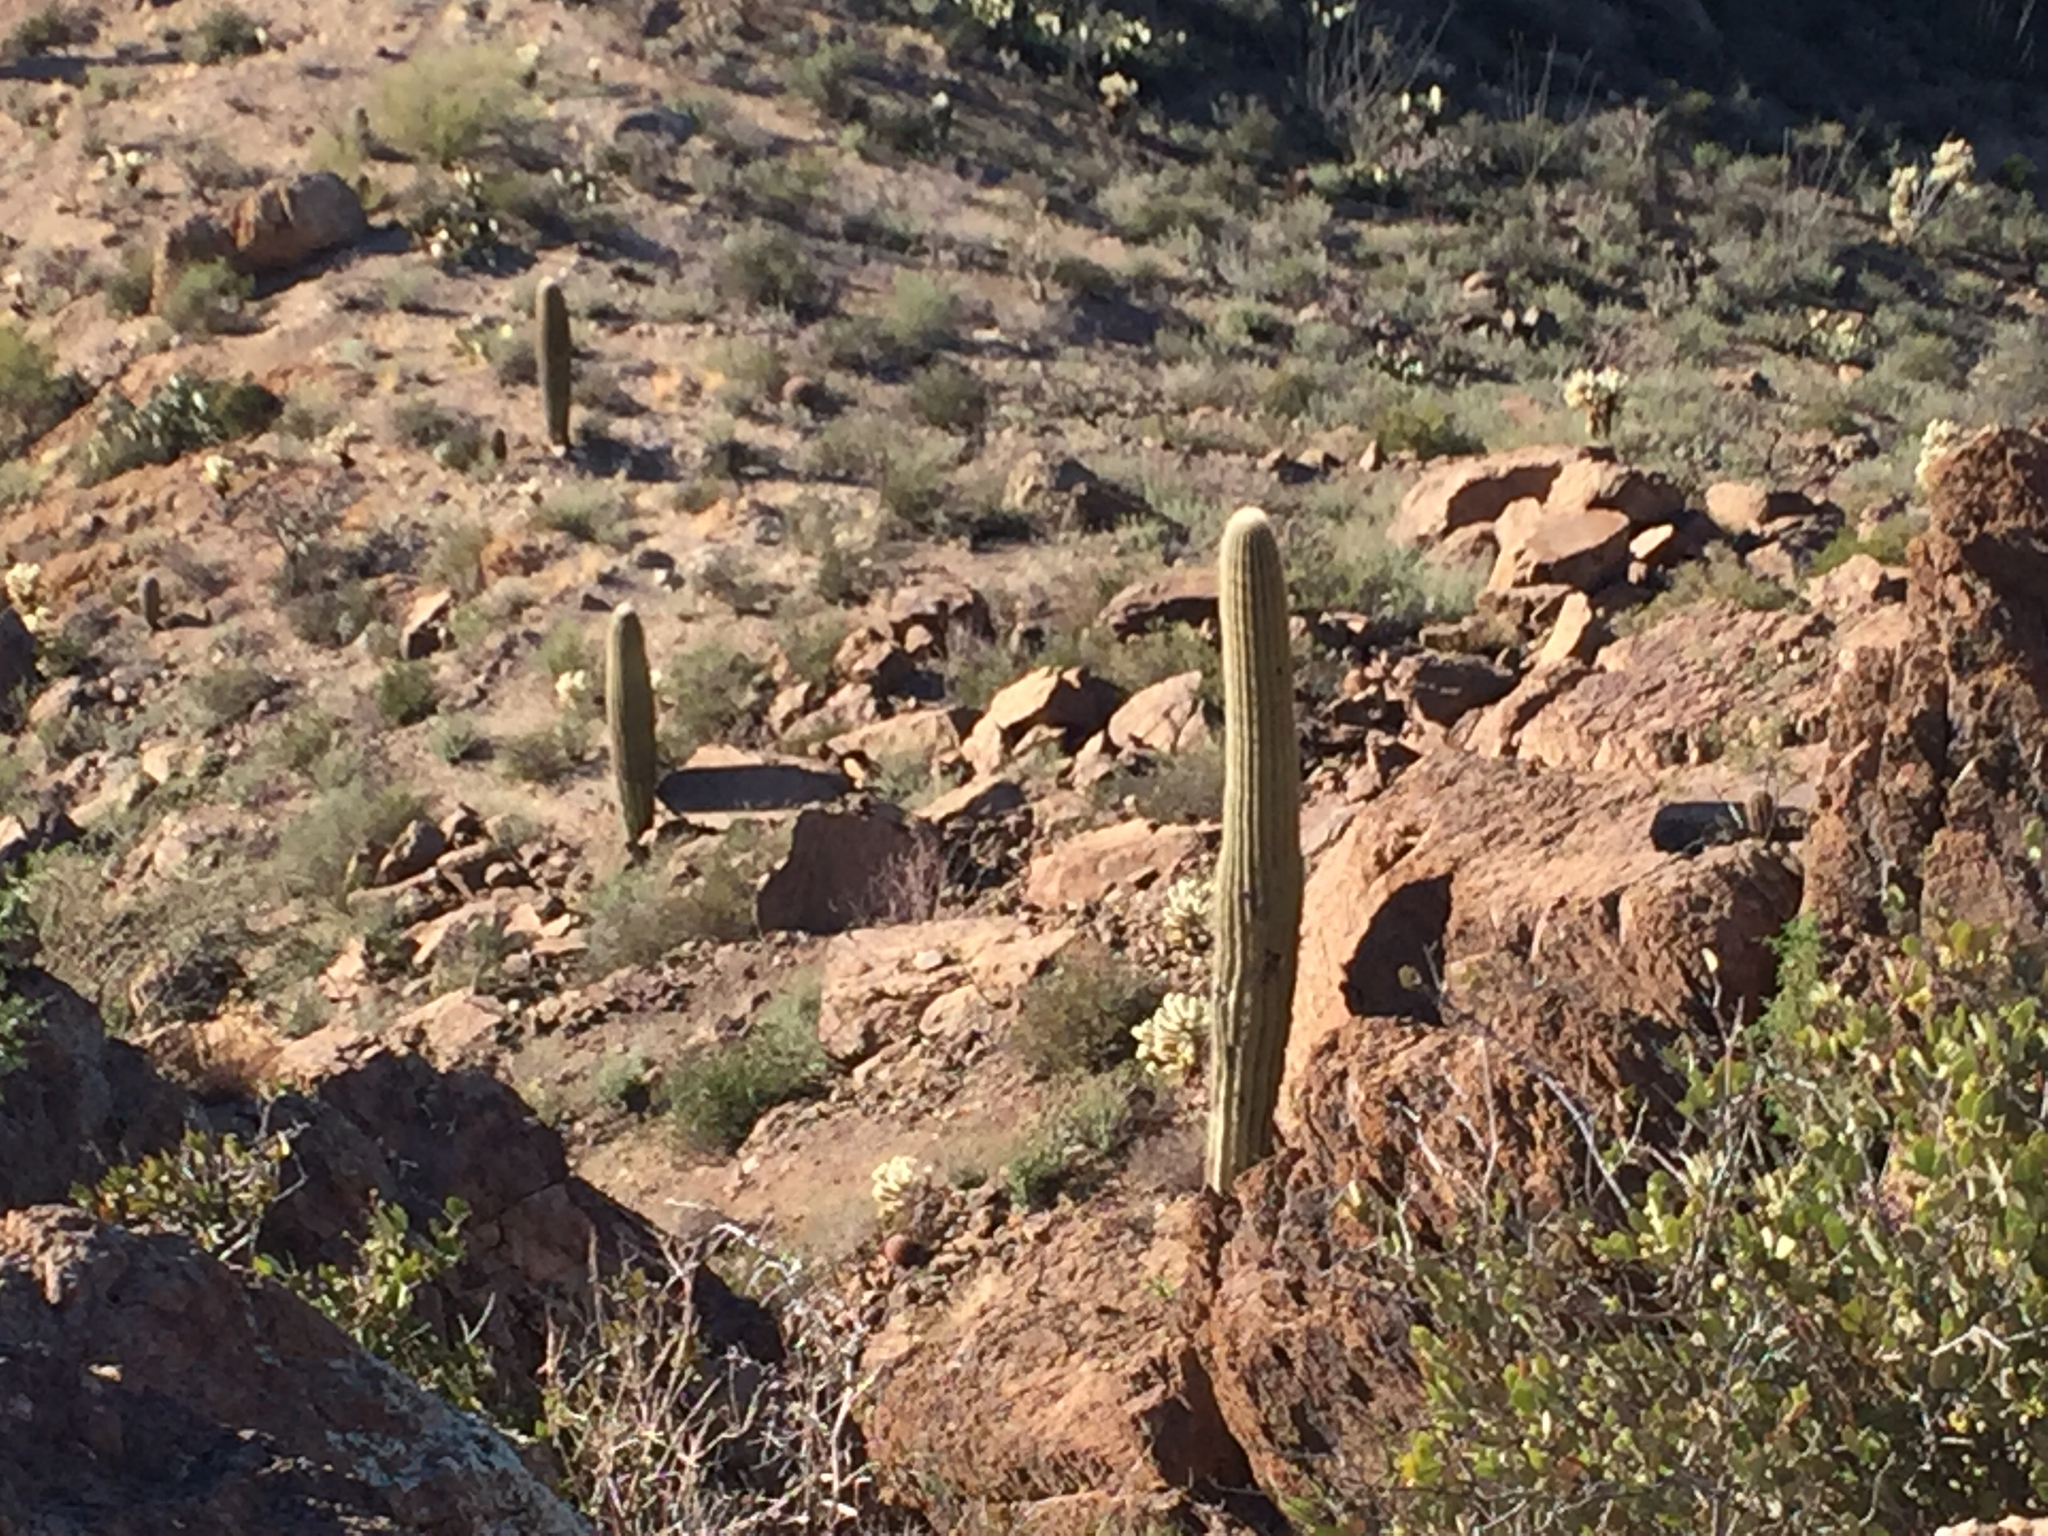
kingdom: Plantae
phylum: Tracheophyta
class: Magnoliopsida
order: Caryophyllales
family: Cactaceae
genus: Carnegiea
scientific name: Carnegiea gigantea
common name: Saguaro
